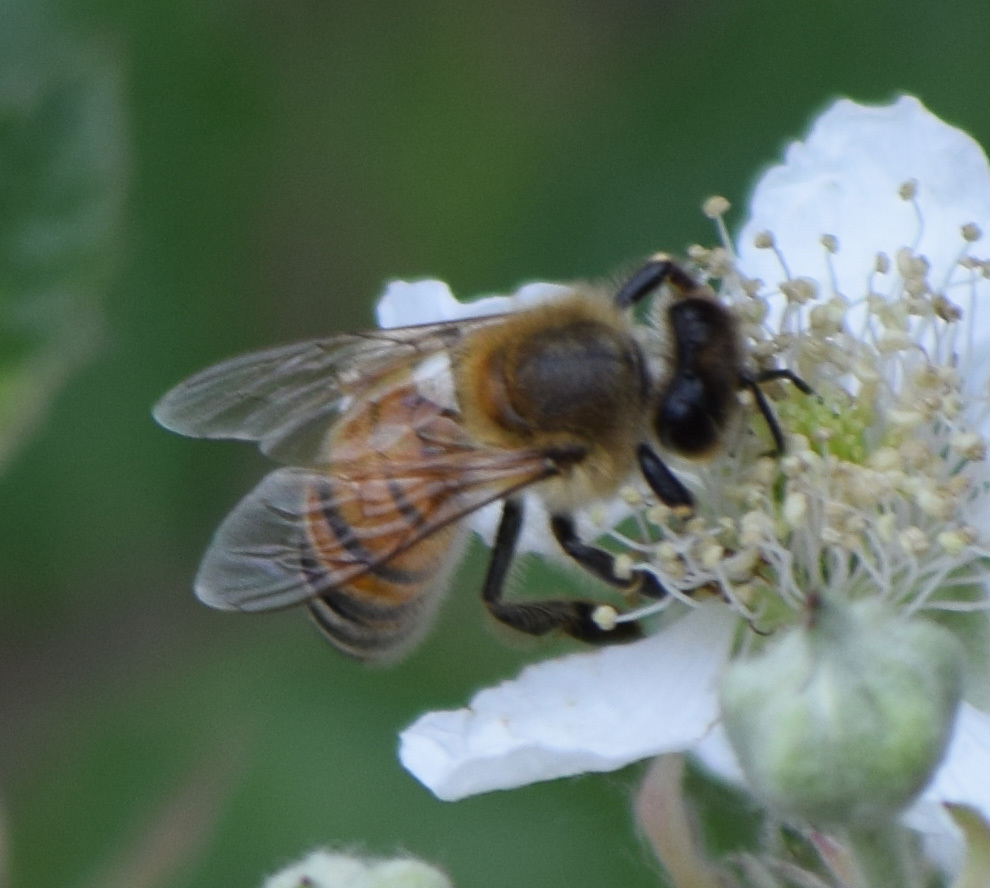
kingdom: Animalia
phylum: Arthropoda
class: Insecta
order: Hymenoptera
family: Apidae
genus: Apis
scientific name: Apis mellifera
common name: Honey bee
